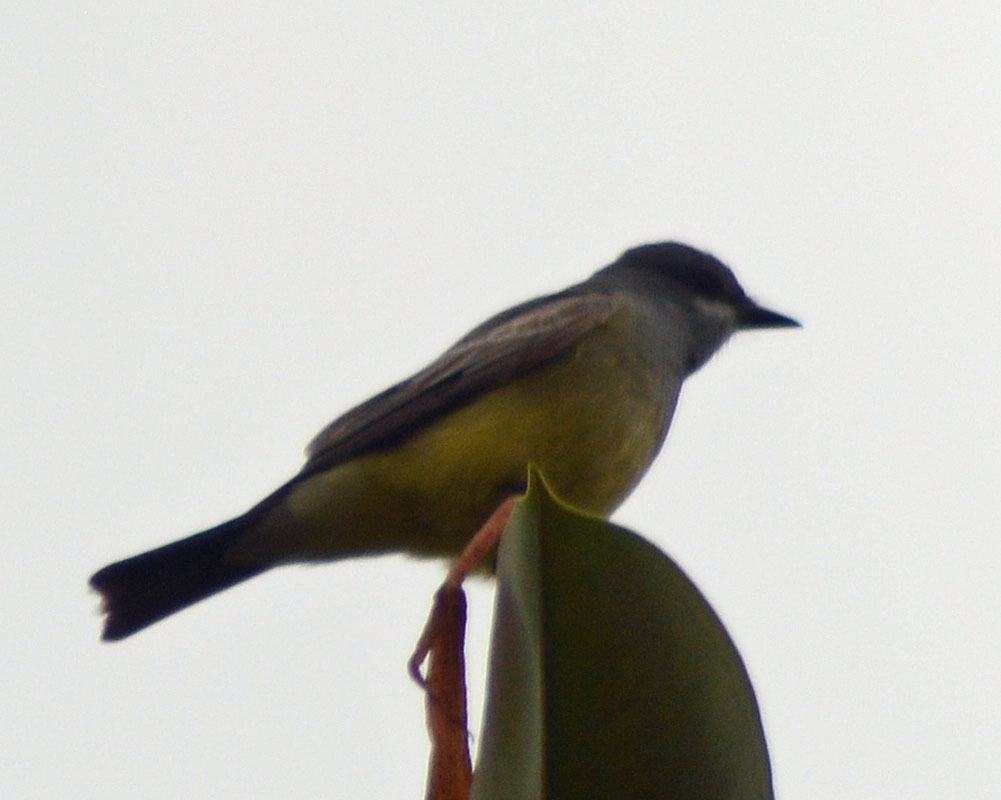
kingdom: Animalia
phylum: Chordata
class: Aves
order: Passeriformes
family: Tyrannidae
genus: Tyrannus
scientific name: Tyrannus vociferans
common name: Cassin's kingbird
